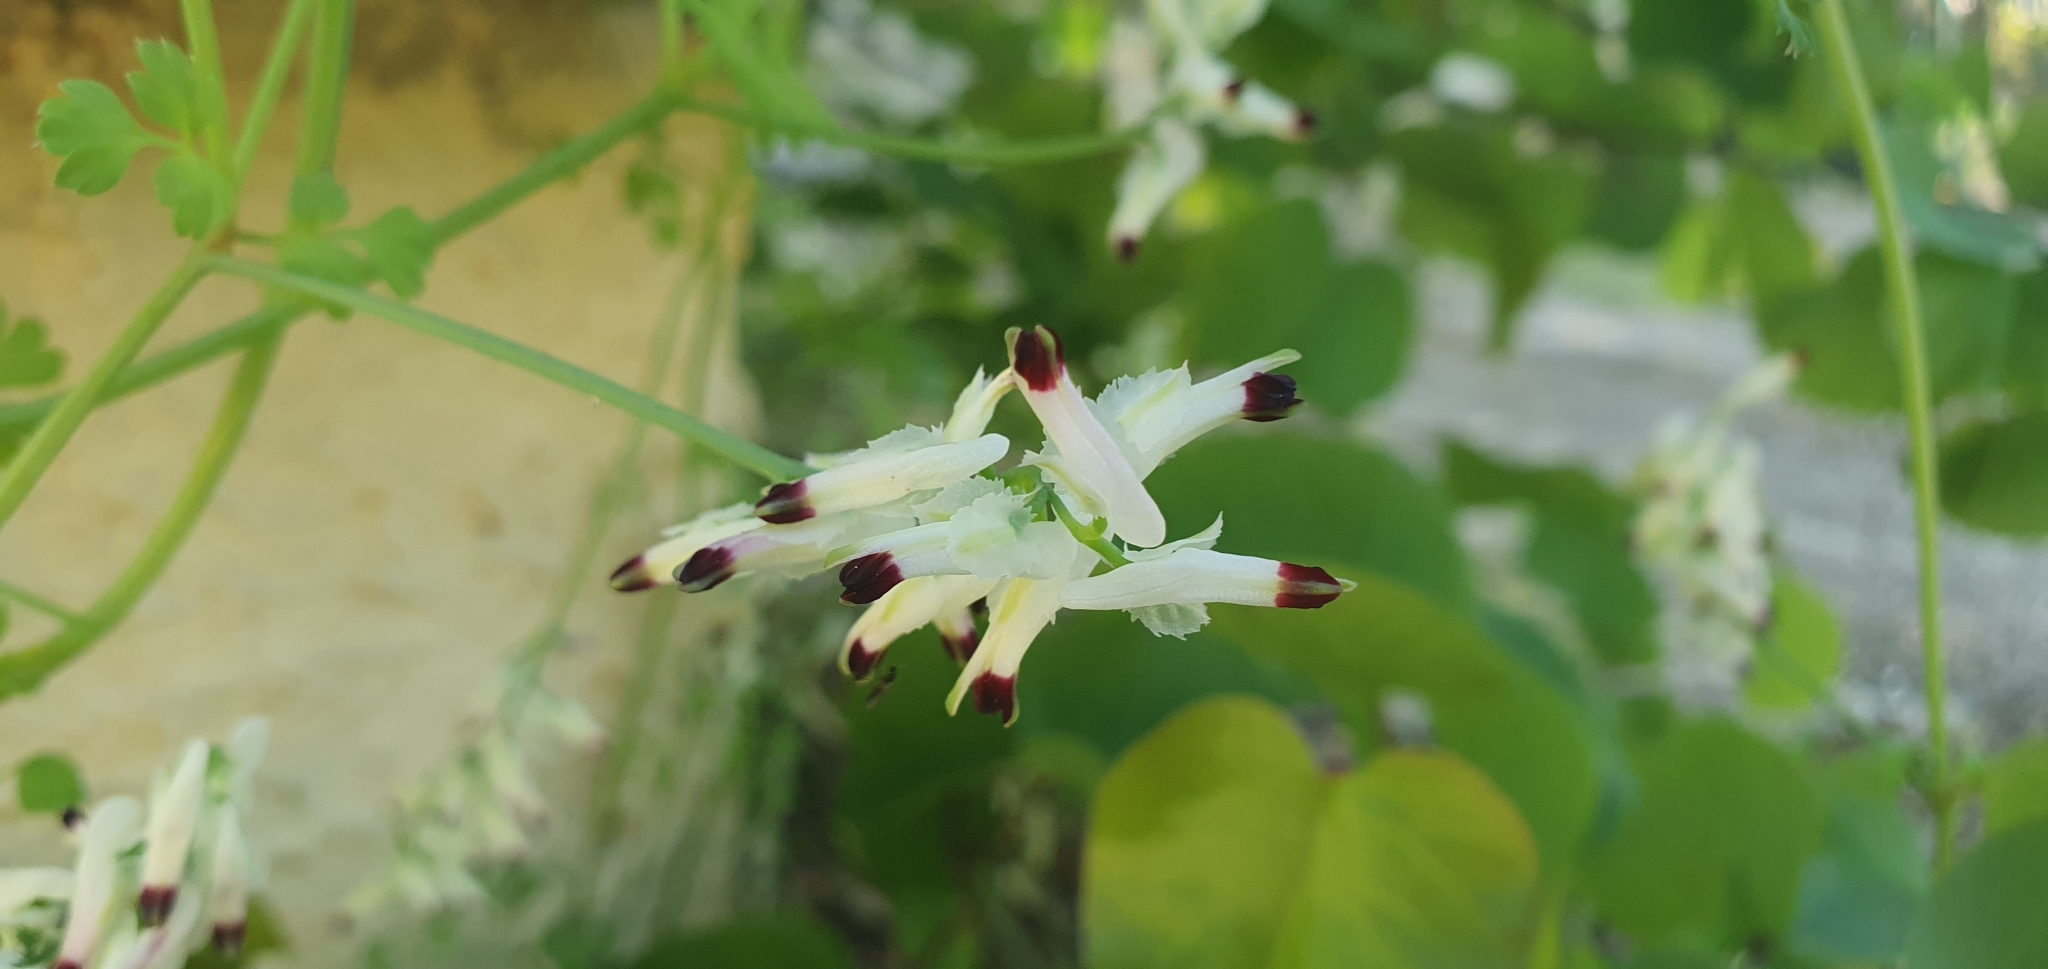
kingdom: Plantae
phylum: Tracheophyta
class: Magnoliopsida
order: Ranunculales
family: Papaveraceae
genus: Fumaria
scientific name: Fumaria capreolata
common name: White ramping-fumitory
